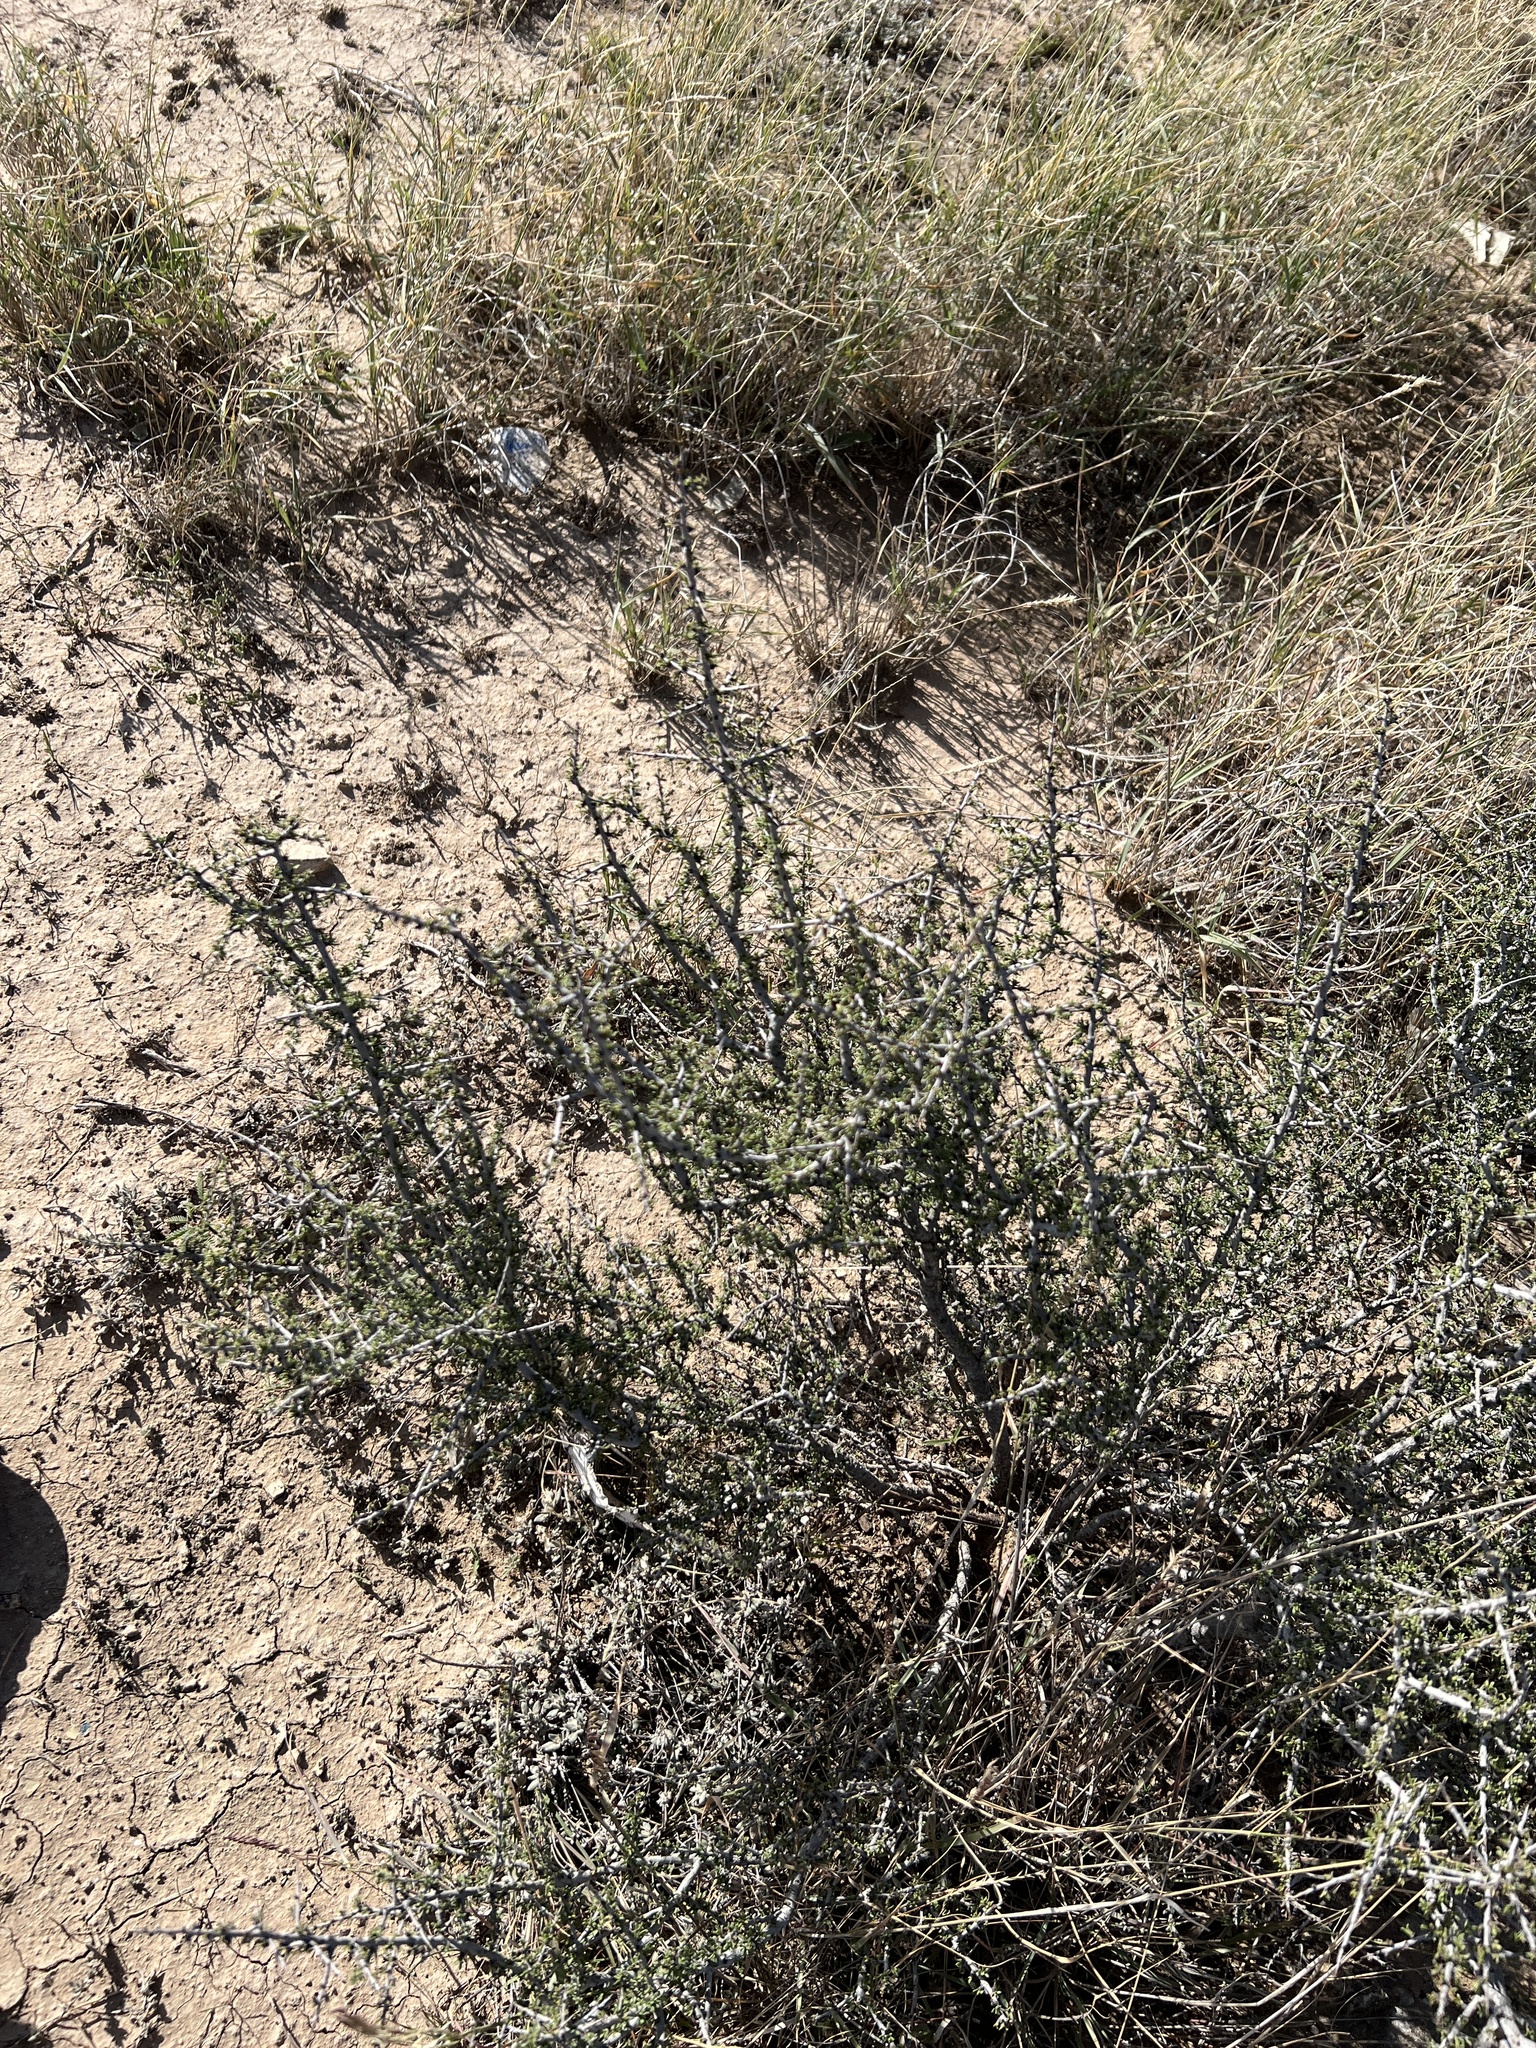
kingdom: Plantae
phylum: Tracheophyta
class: Magnoliopsida
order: Rosales
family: Rhamnaceae
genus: Condalia
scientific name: Condalia ericoides
